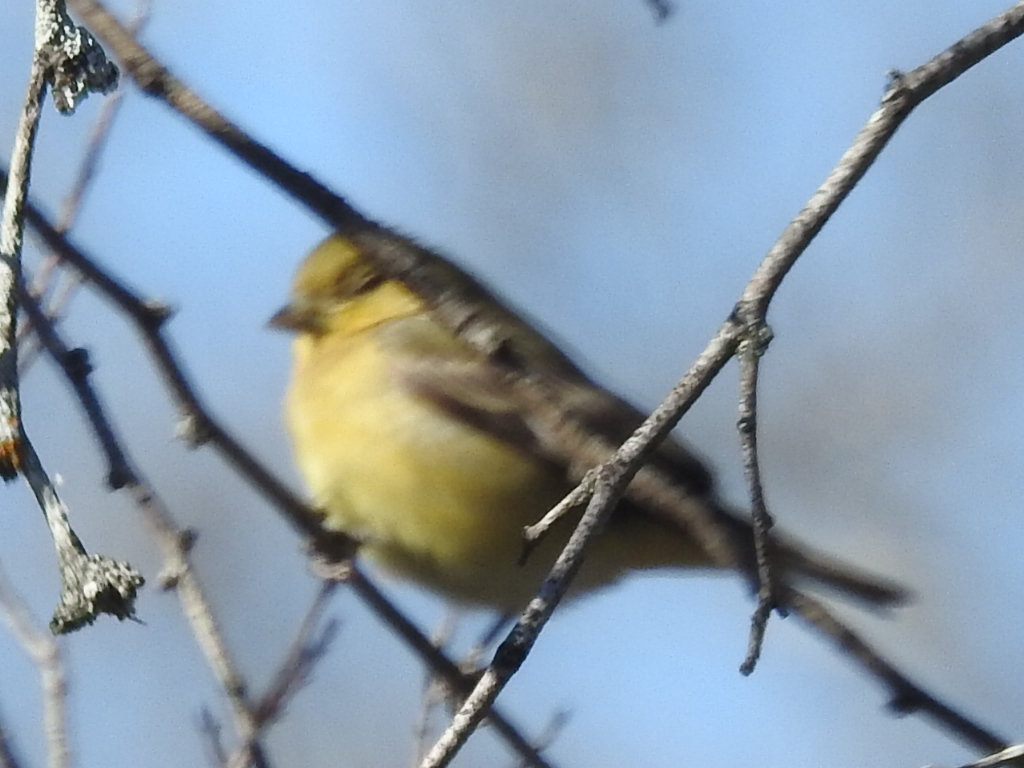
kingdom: Animalia
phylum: Chordata
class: Aves
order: Passeriformes
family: Fringillidae
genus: Spinus
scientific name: Spinus psaltria
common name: Lesser goldfinch
